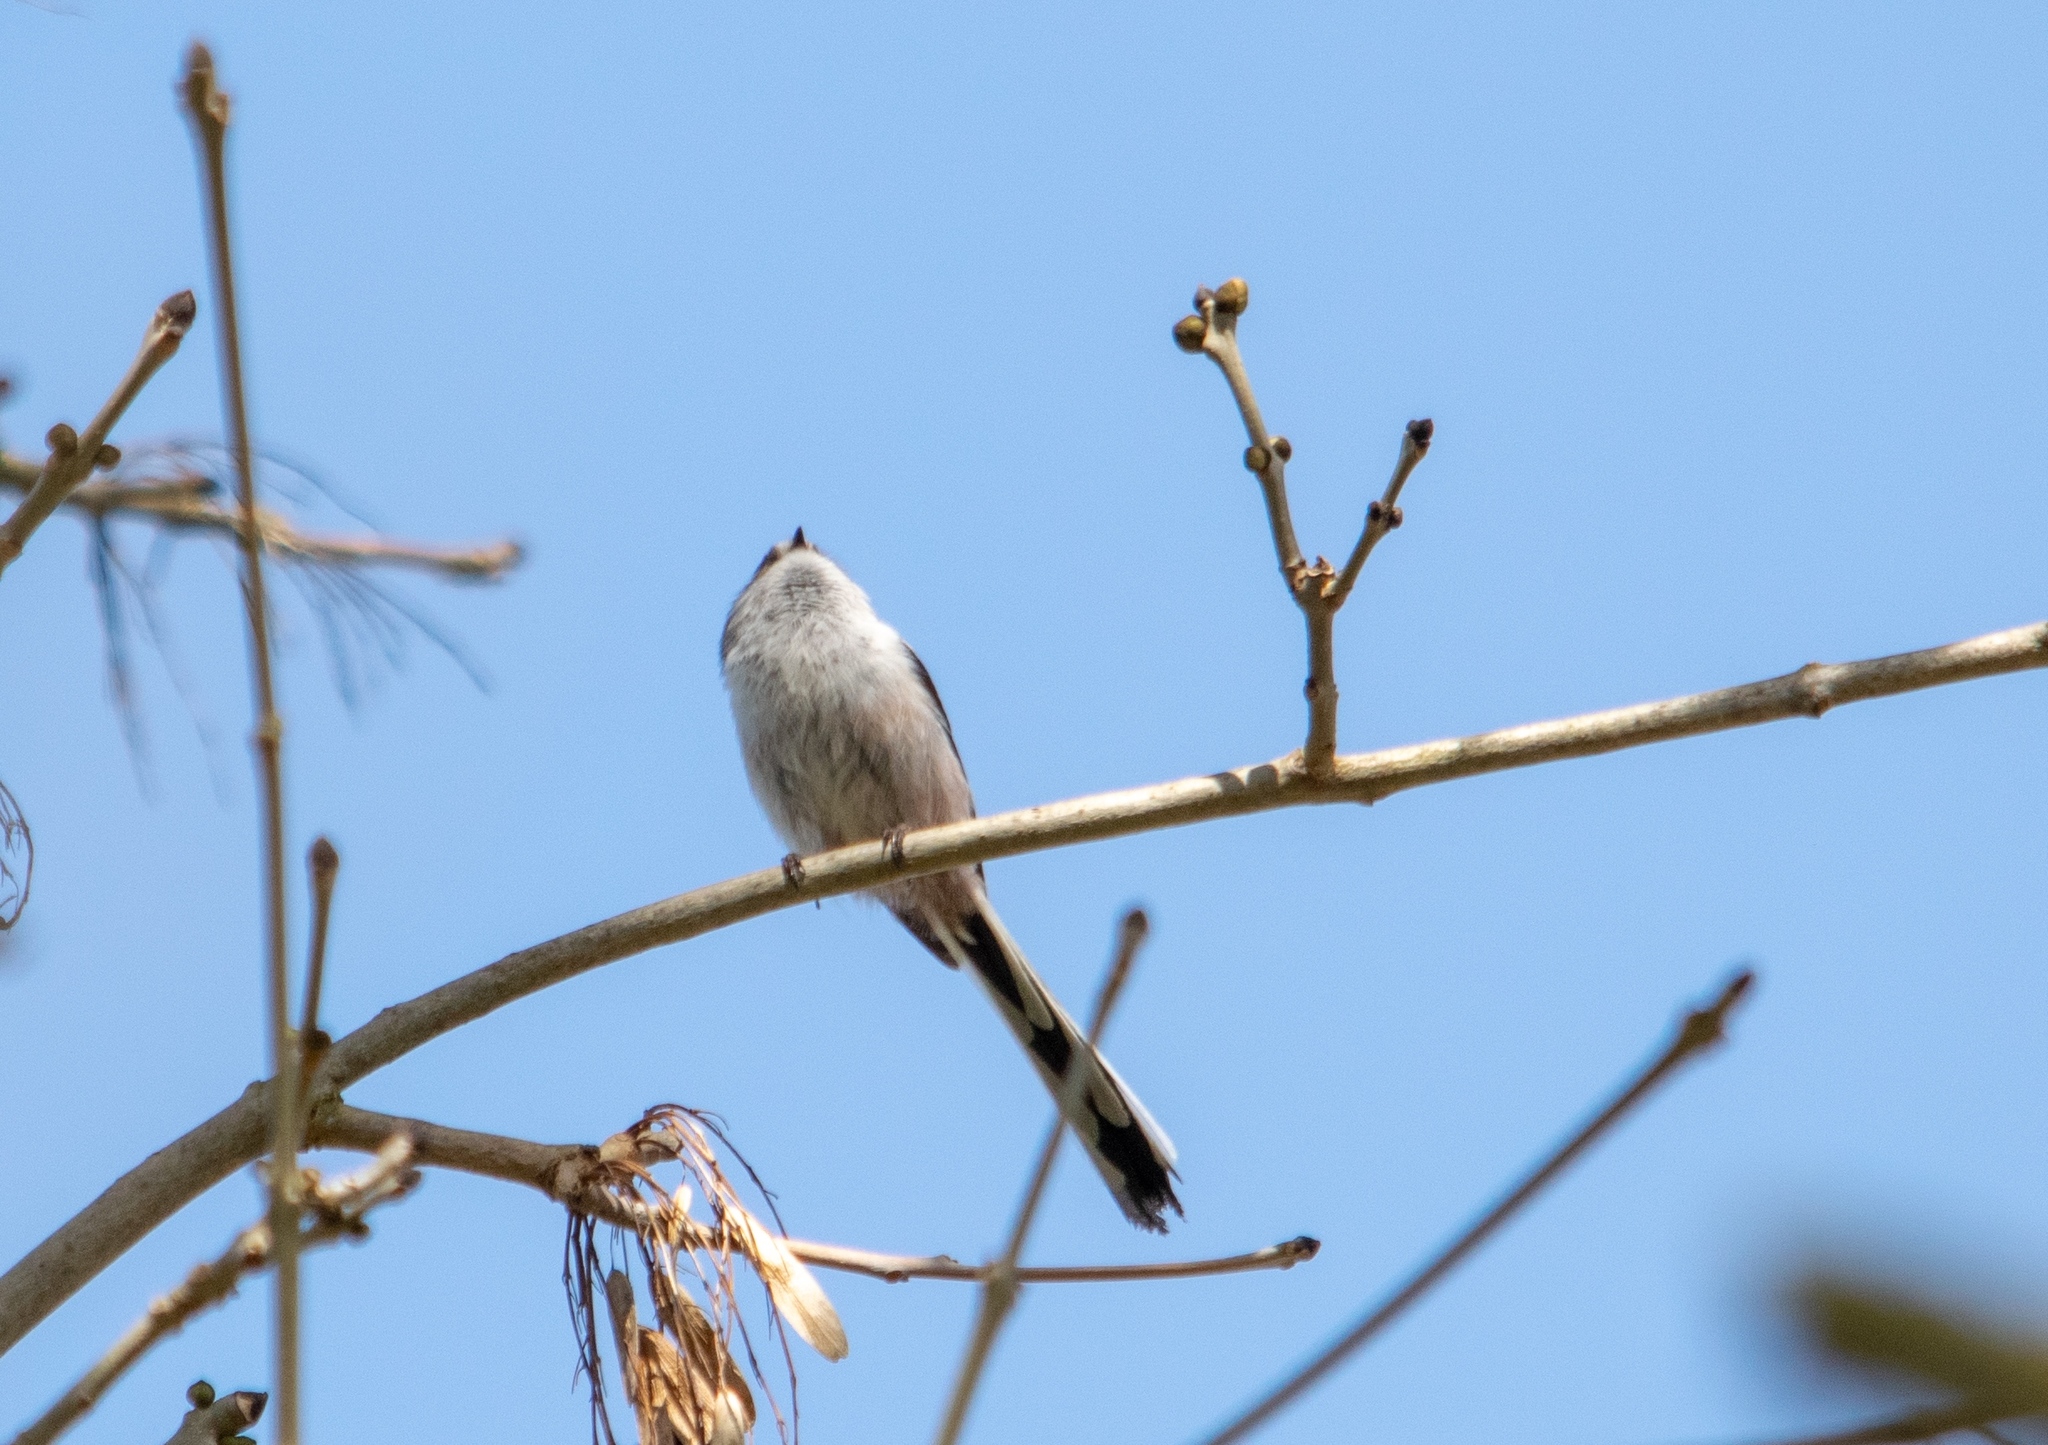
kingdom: Animalia
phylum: Chordata
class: Aves
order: Passeriformes
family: Aegithalidae
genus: Aegithalos
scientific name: Aegithalos caudatus
